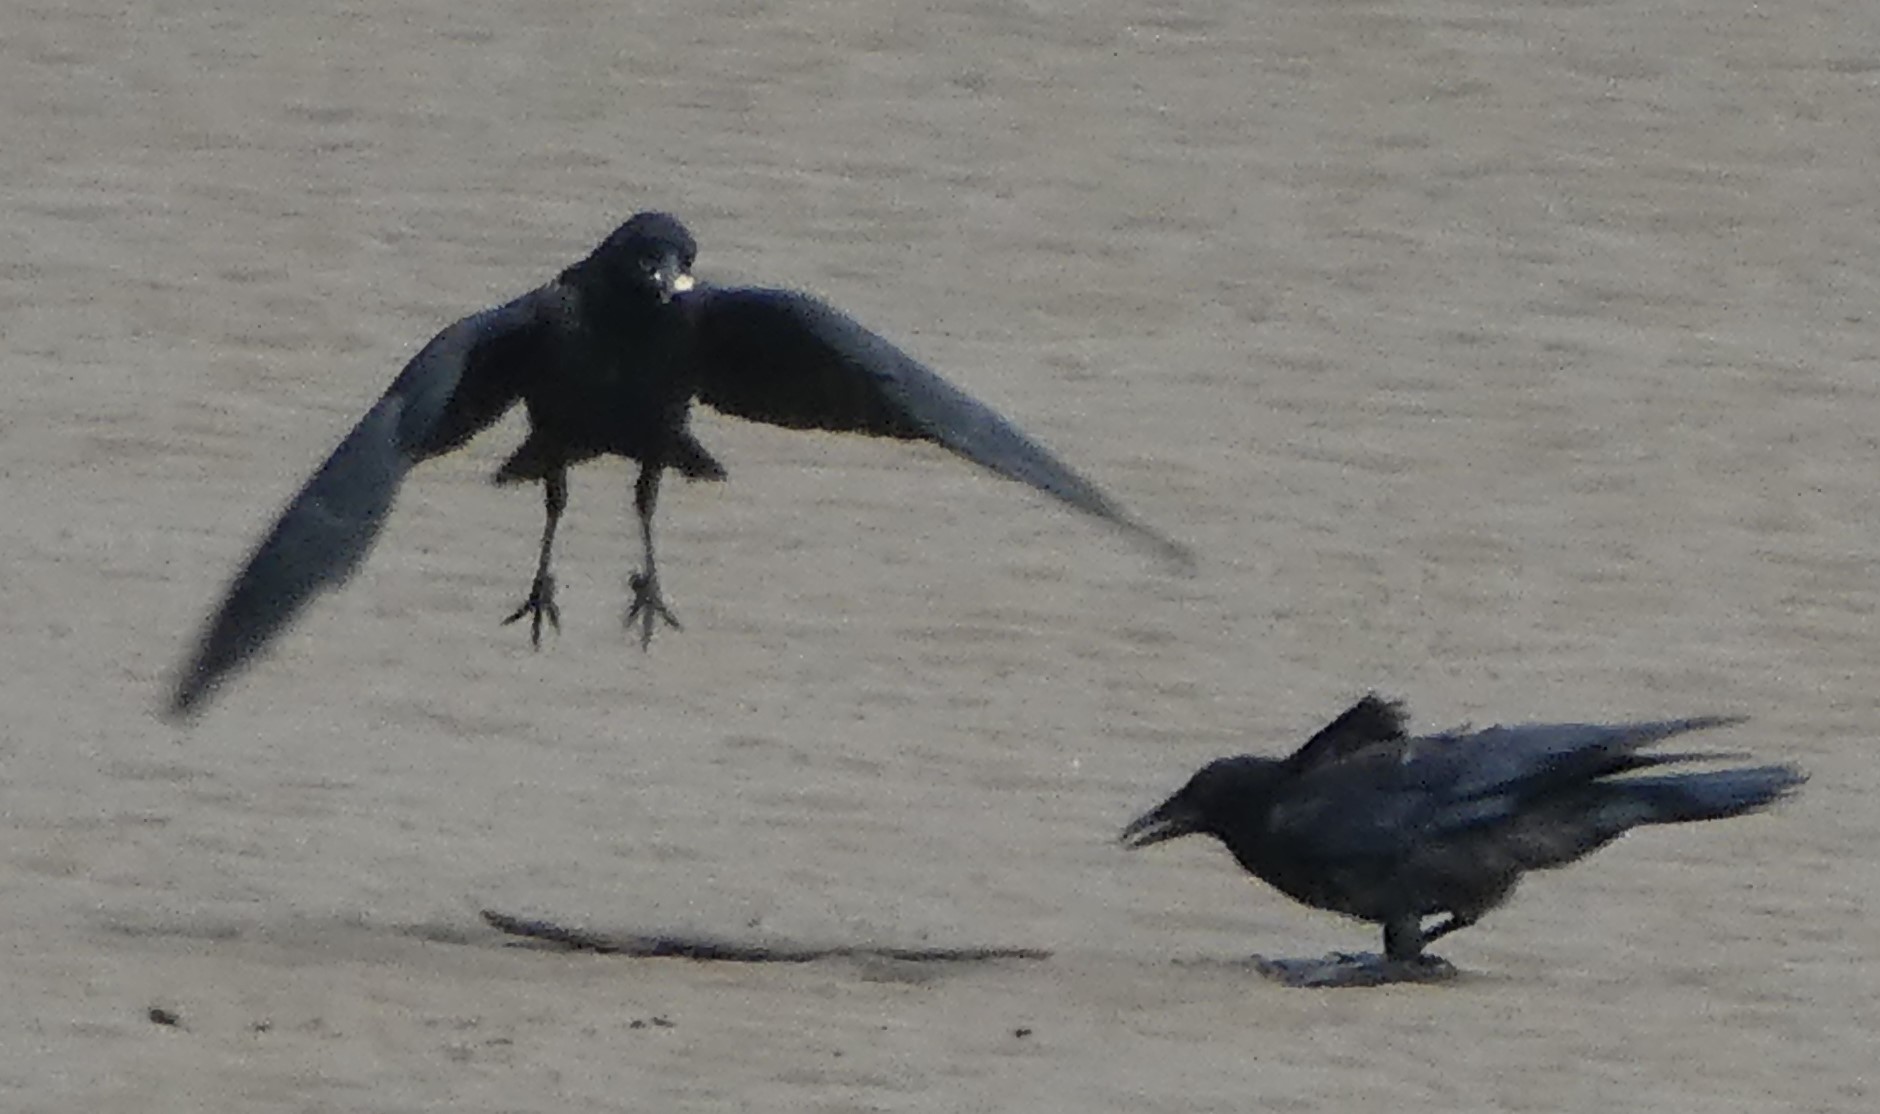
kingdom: Animalia
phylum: Chordata
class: Aves
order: Passeriformes
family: Corvidae
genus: Corvus
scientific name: Corvus corone
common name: Carrion crow
